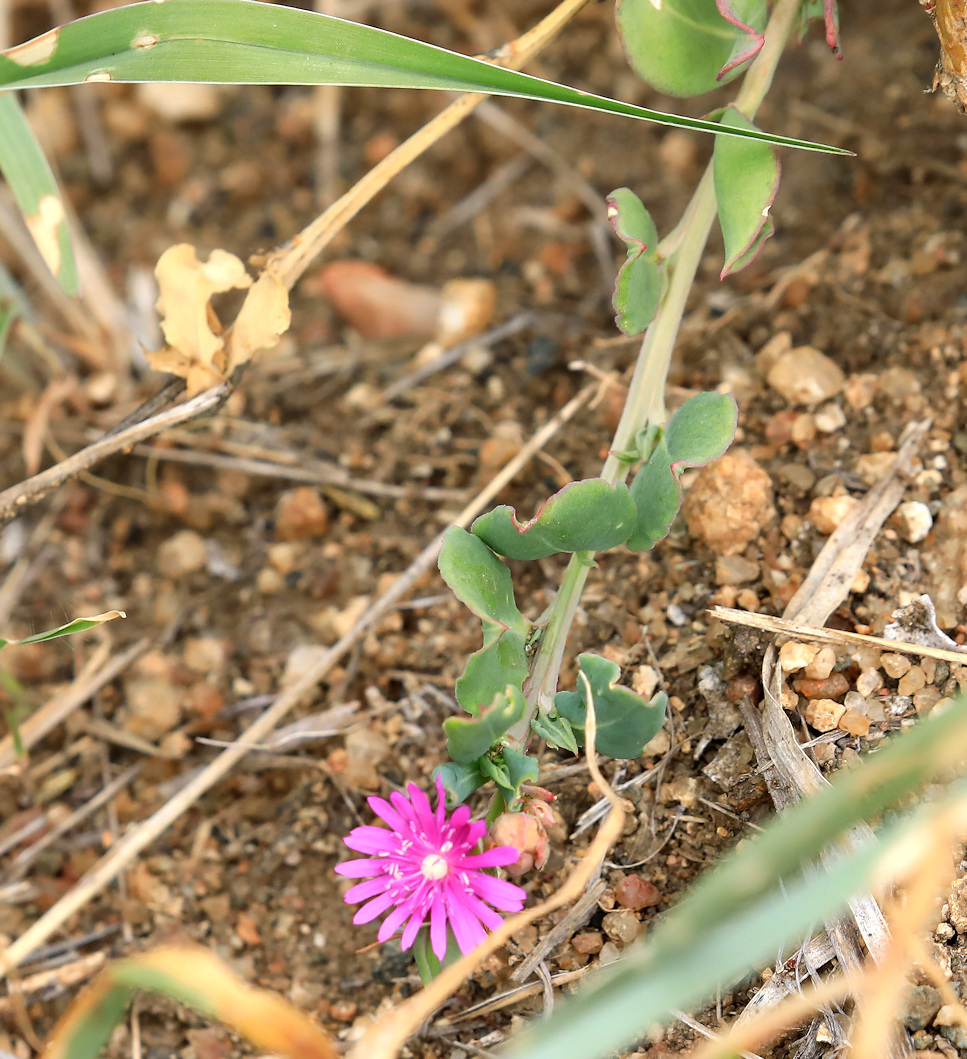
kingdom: Plantae
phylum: Tracheophyta
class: Magnoliopsida
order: Caryophyllales
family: Corbichoniaceae
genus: Corbichonia
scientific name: Corbichonia decumbens
